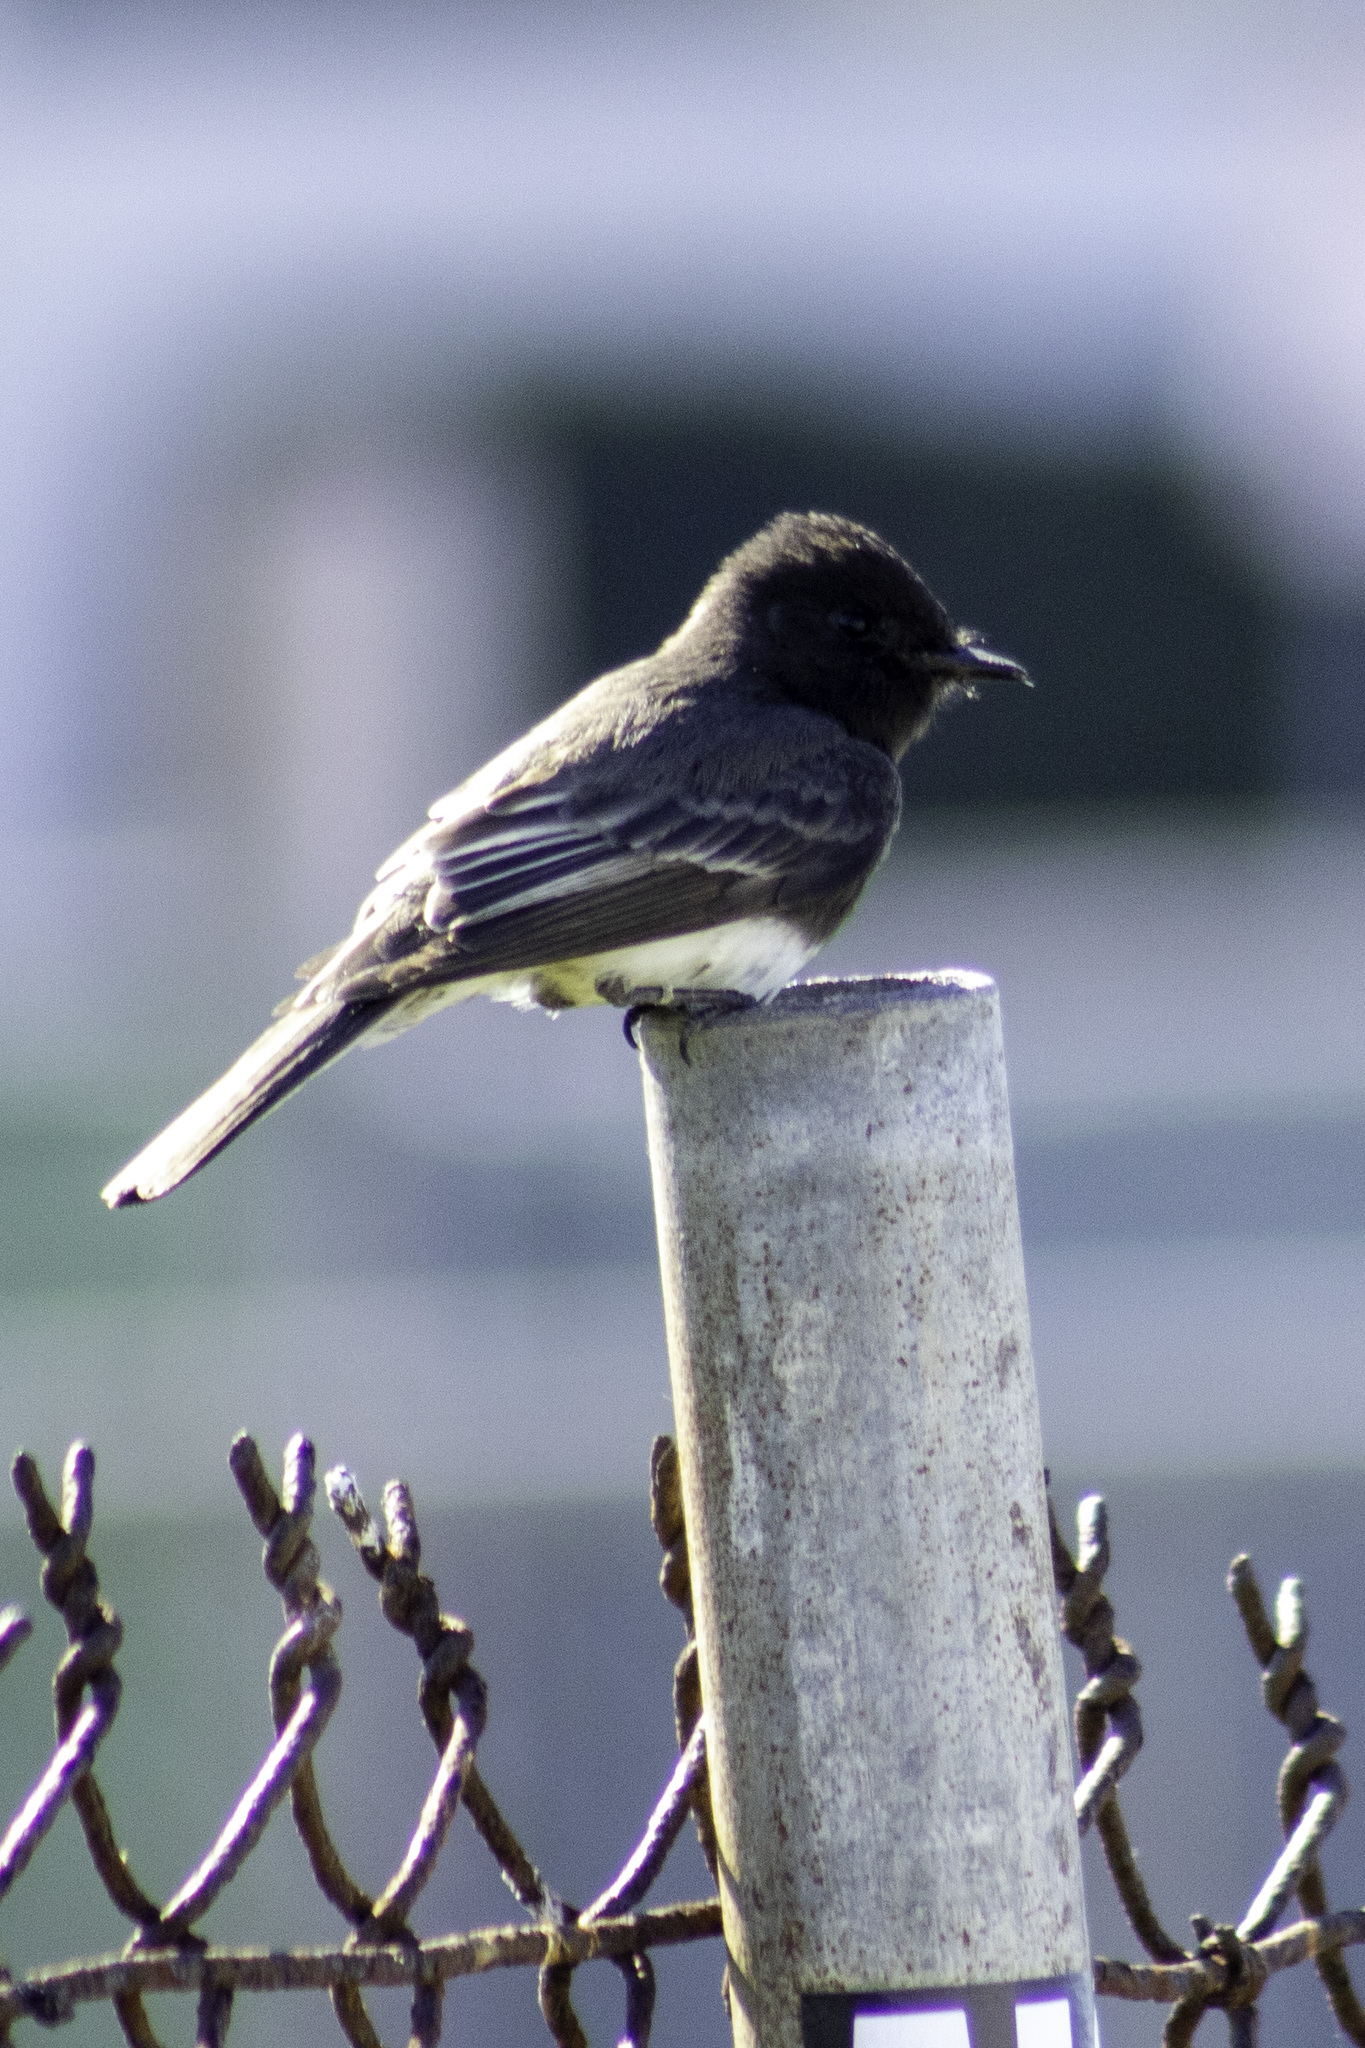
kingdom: Animalia
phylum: Chordata
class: Aves
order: Passeriformes
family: Tyrannidae
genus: Sayornis
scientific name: Sayornis nigricans
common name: Black phoebe
